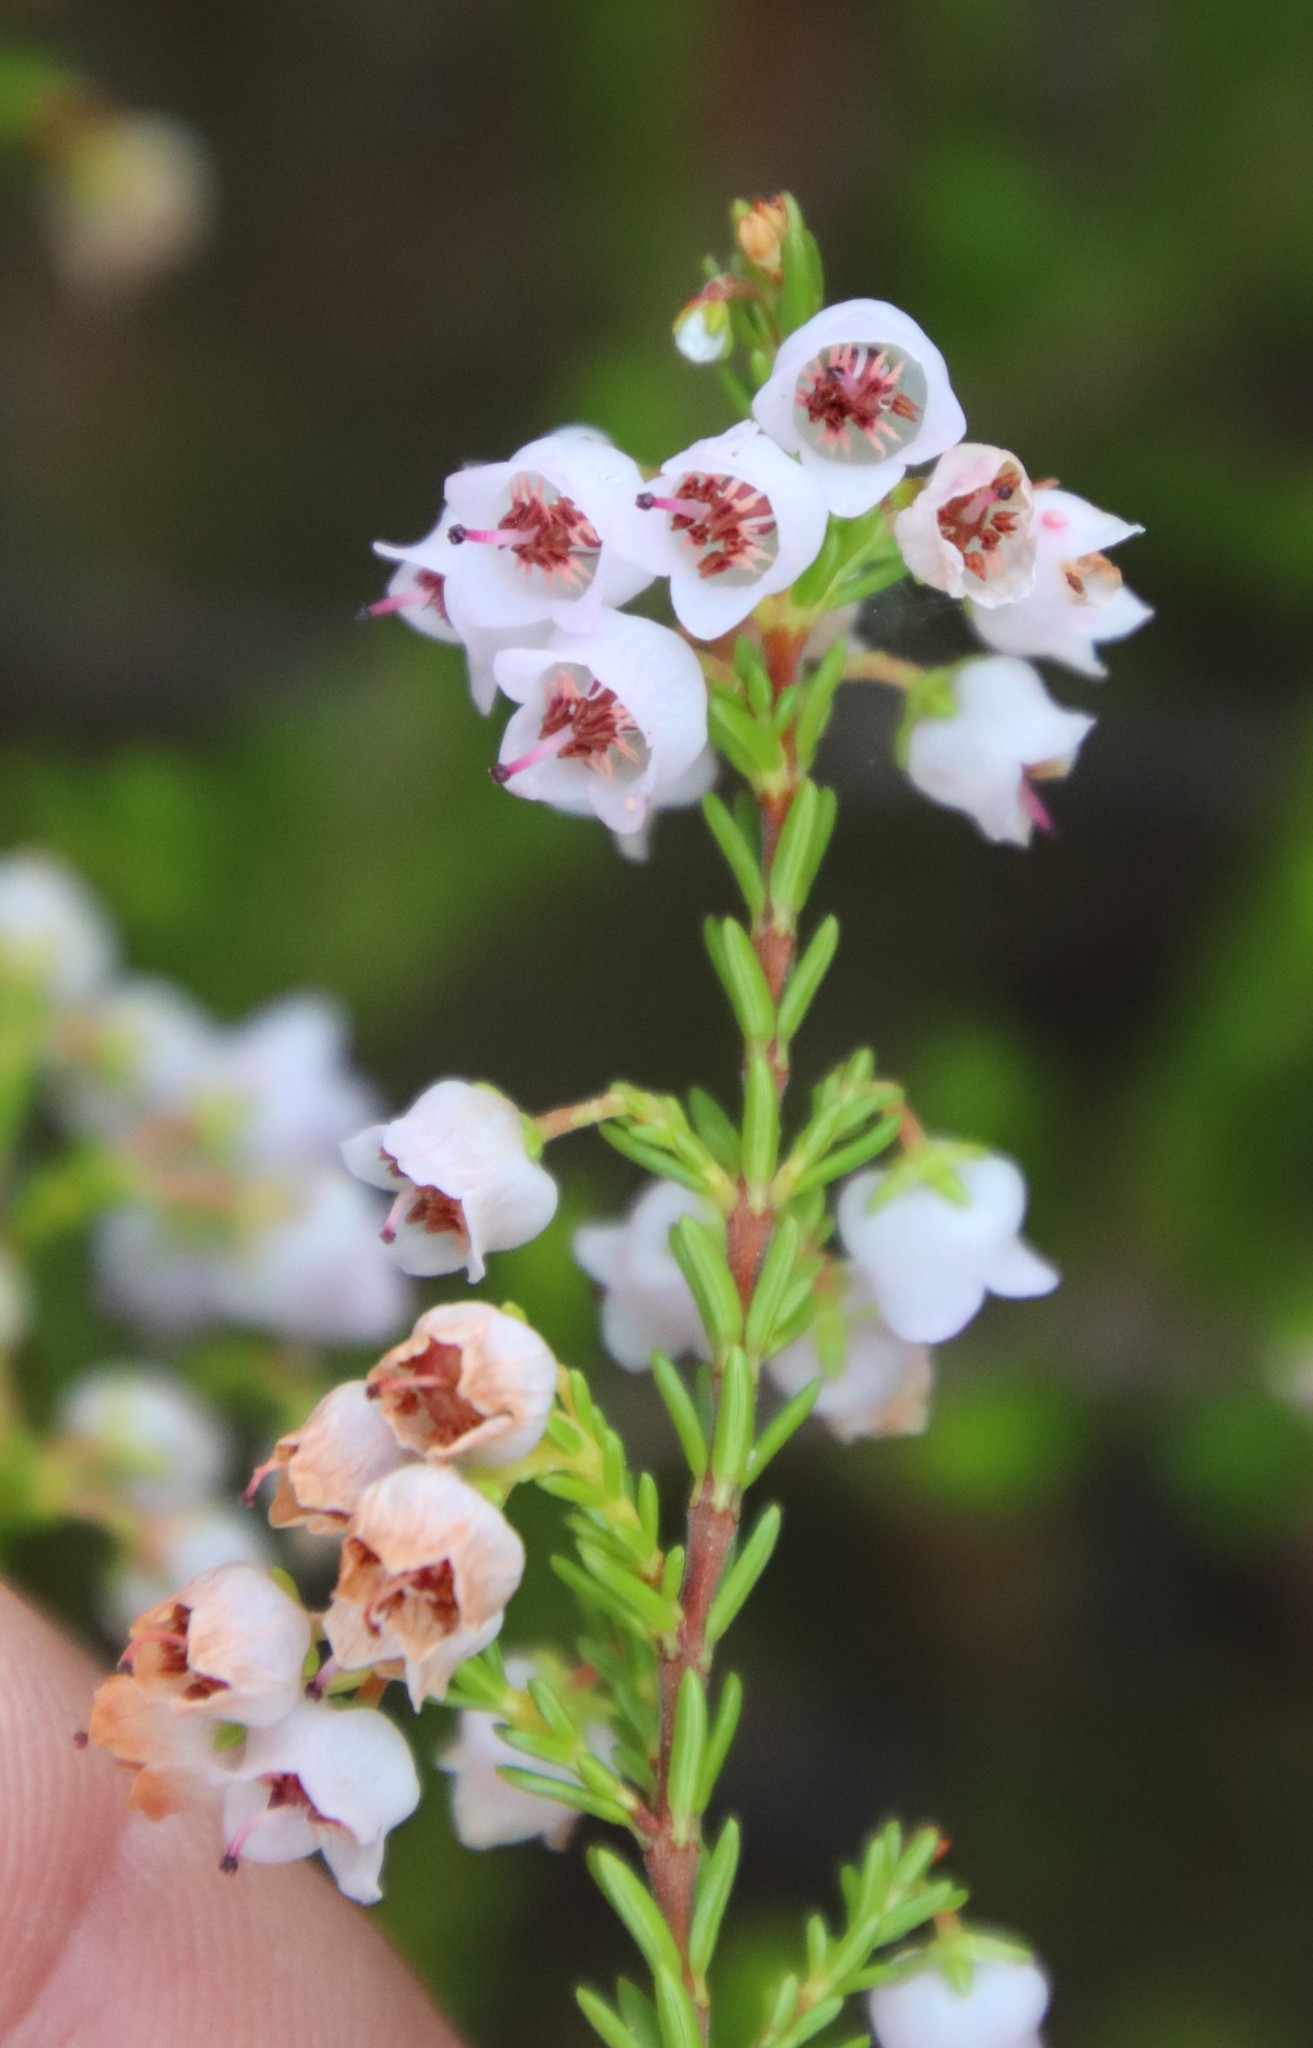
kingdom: Plantae
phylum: Tracheophyta
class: Magnoliopsida
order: Ericales
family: Ericaceae
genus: Erica
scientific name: Erica curvirostris
